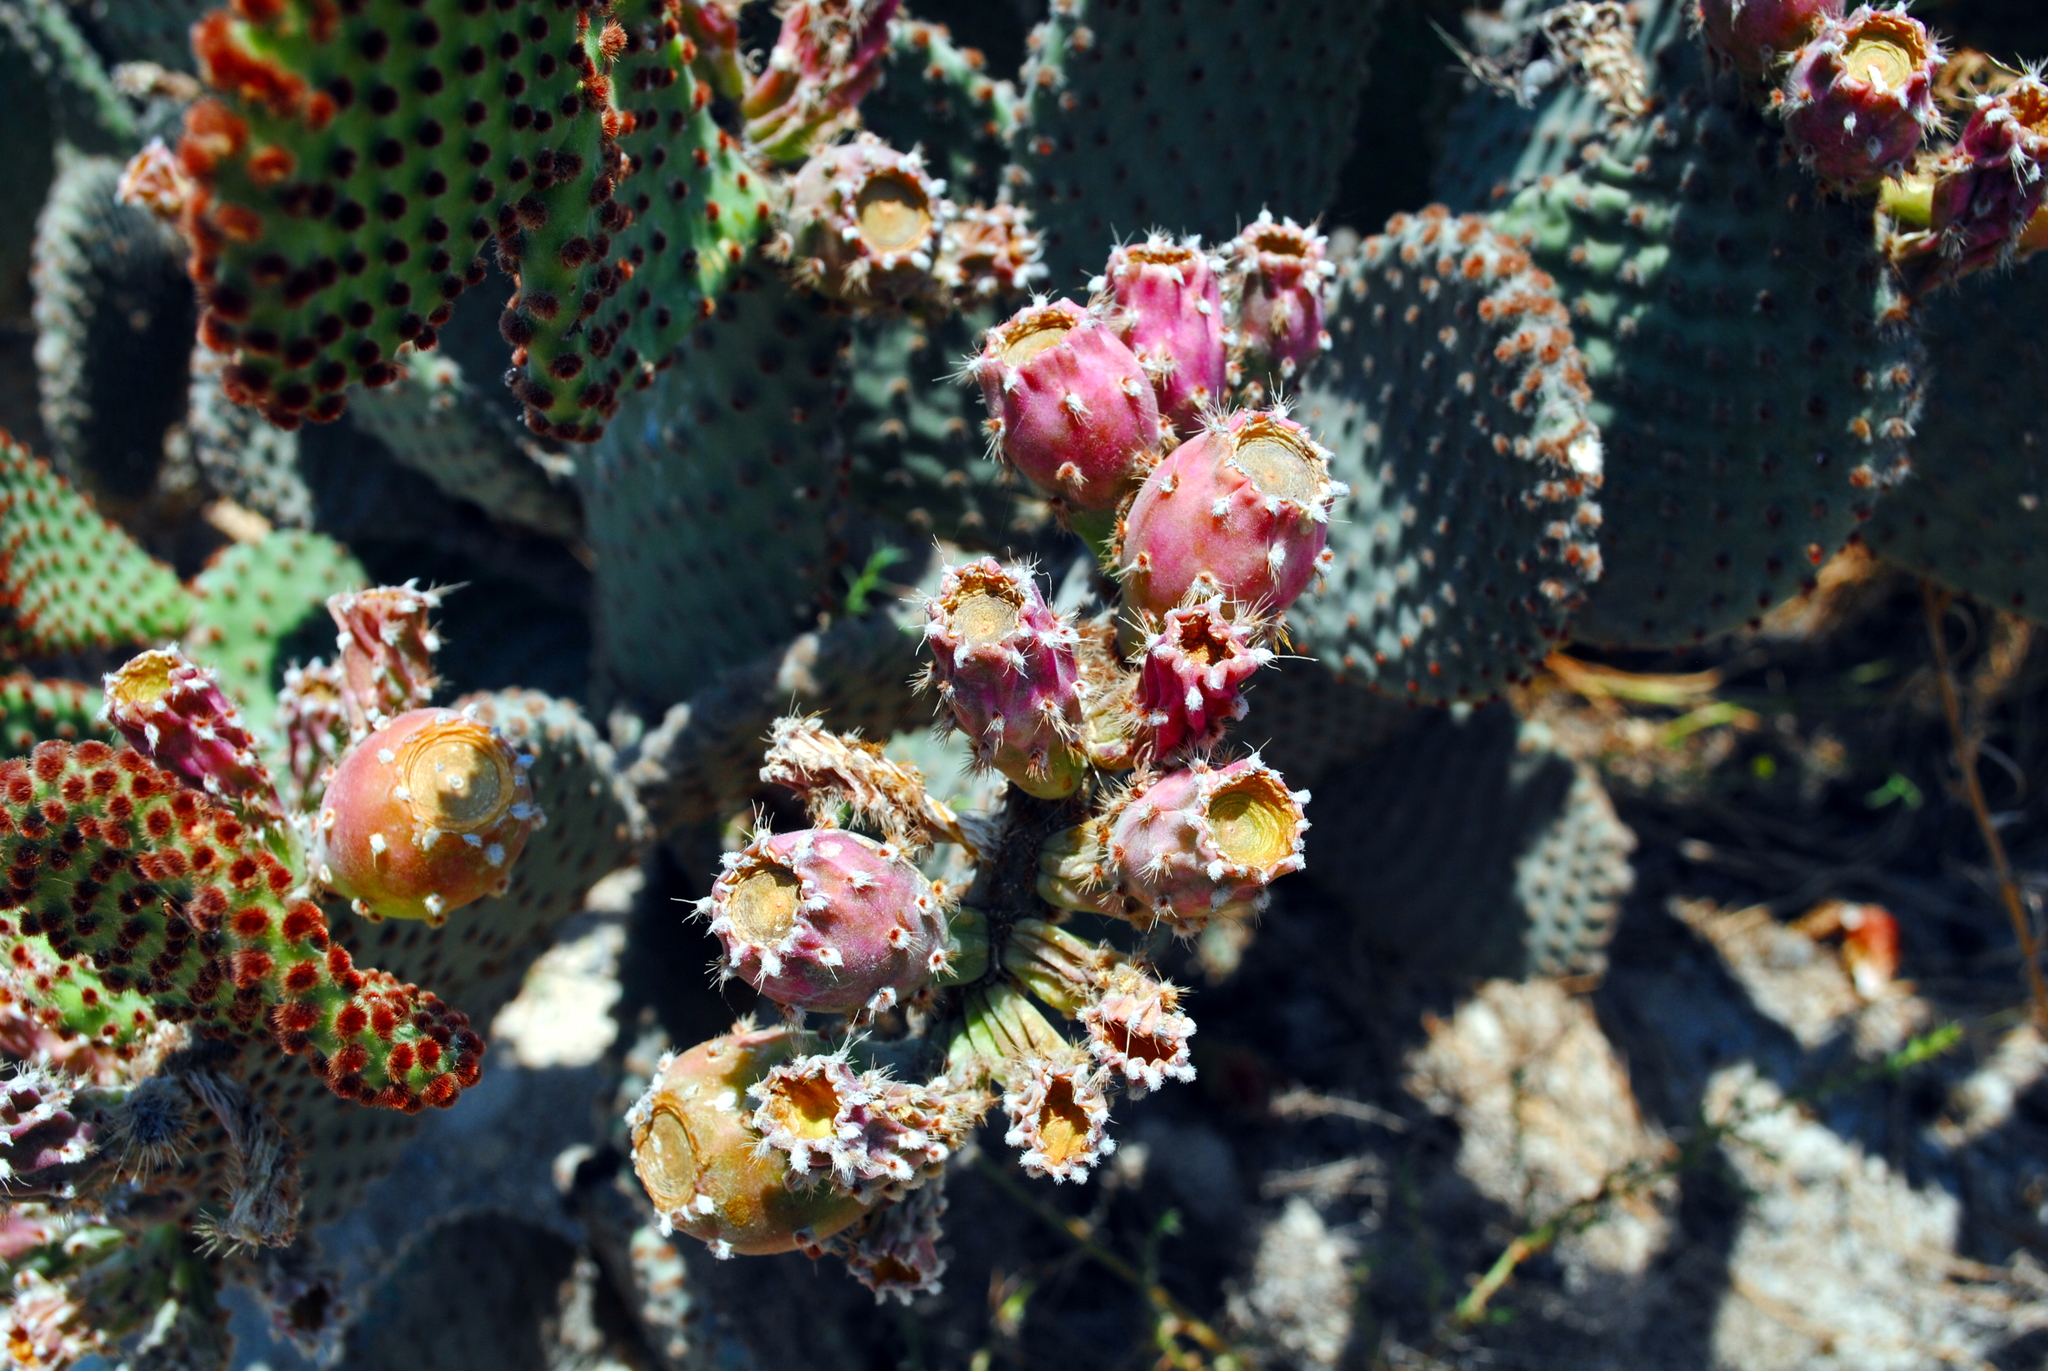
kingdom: Plantae
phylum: Tracheophyta
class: Magnoliopsida
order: Caryophyllales
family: Cactaceae
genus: Opuntia
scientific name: Opuntia microdasys
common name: Angel's-wings
